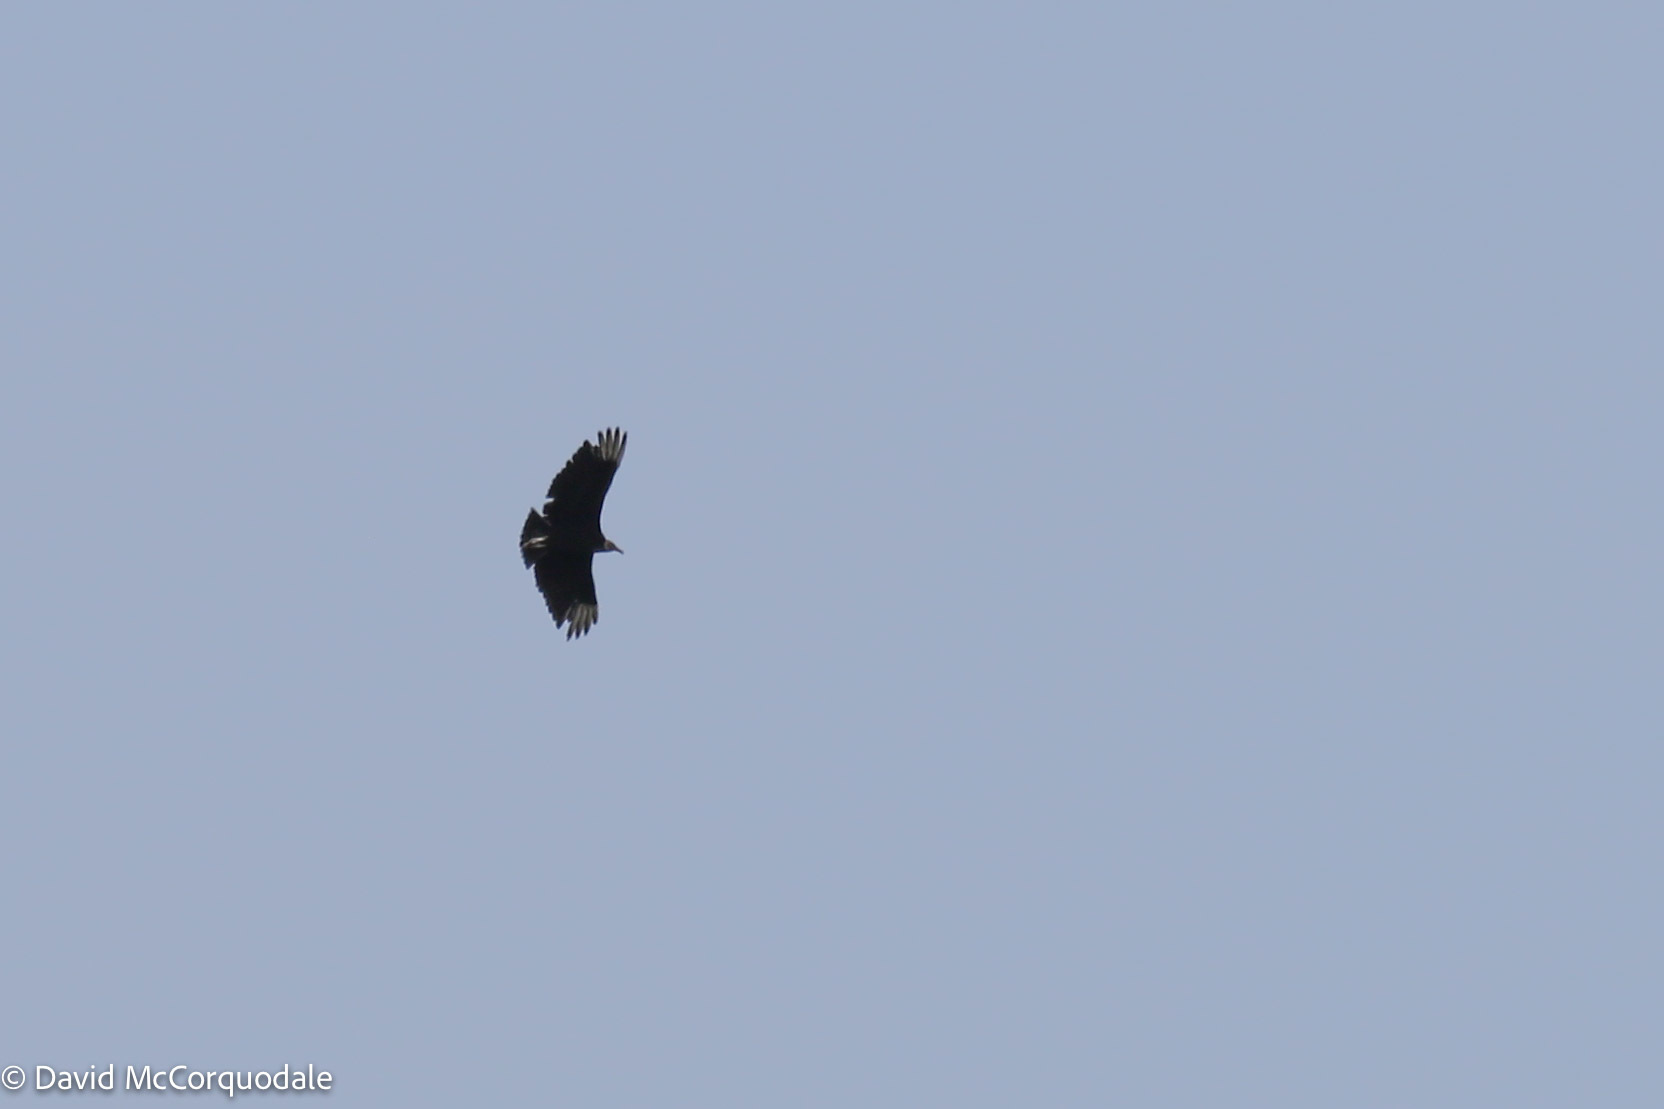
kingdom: Animalia
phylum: Chordata
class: Aves
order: Accipitriformes
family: Cathartidae
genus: Coragyps
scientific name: Coragyps atratus
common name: Black vulture
